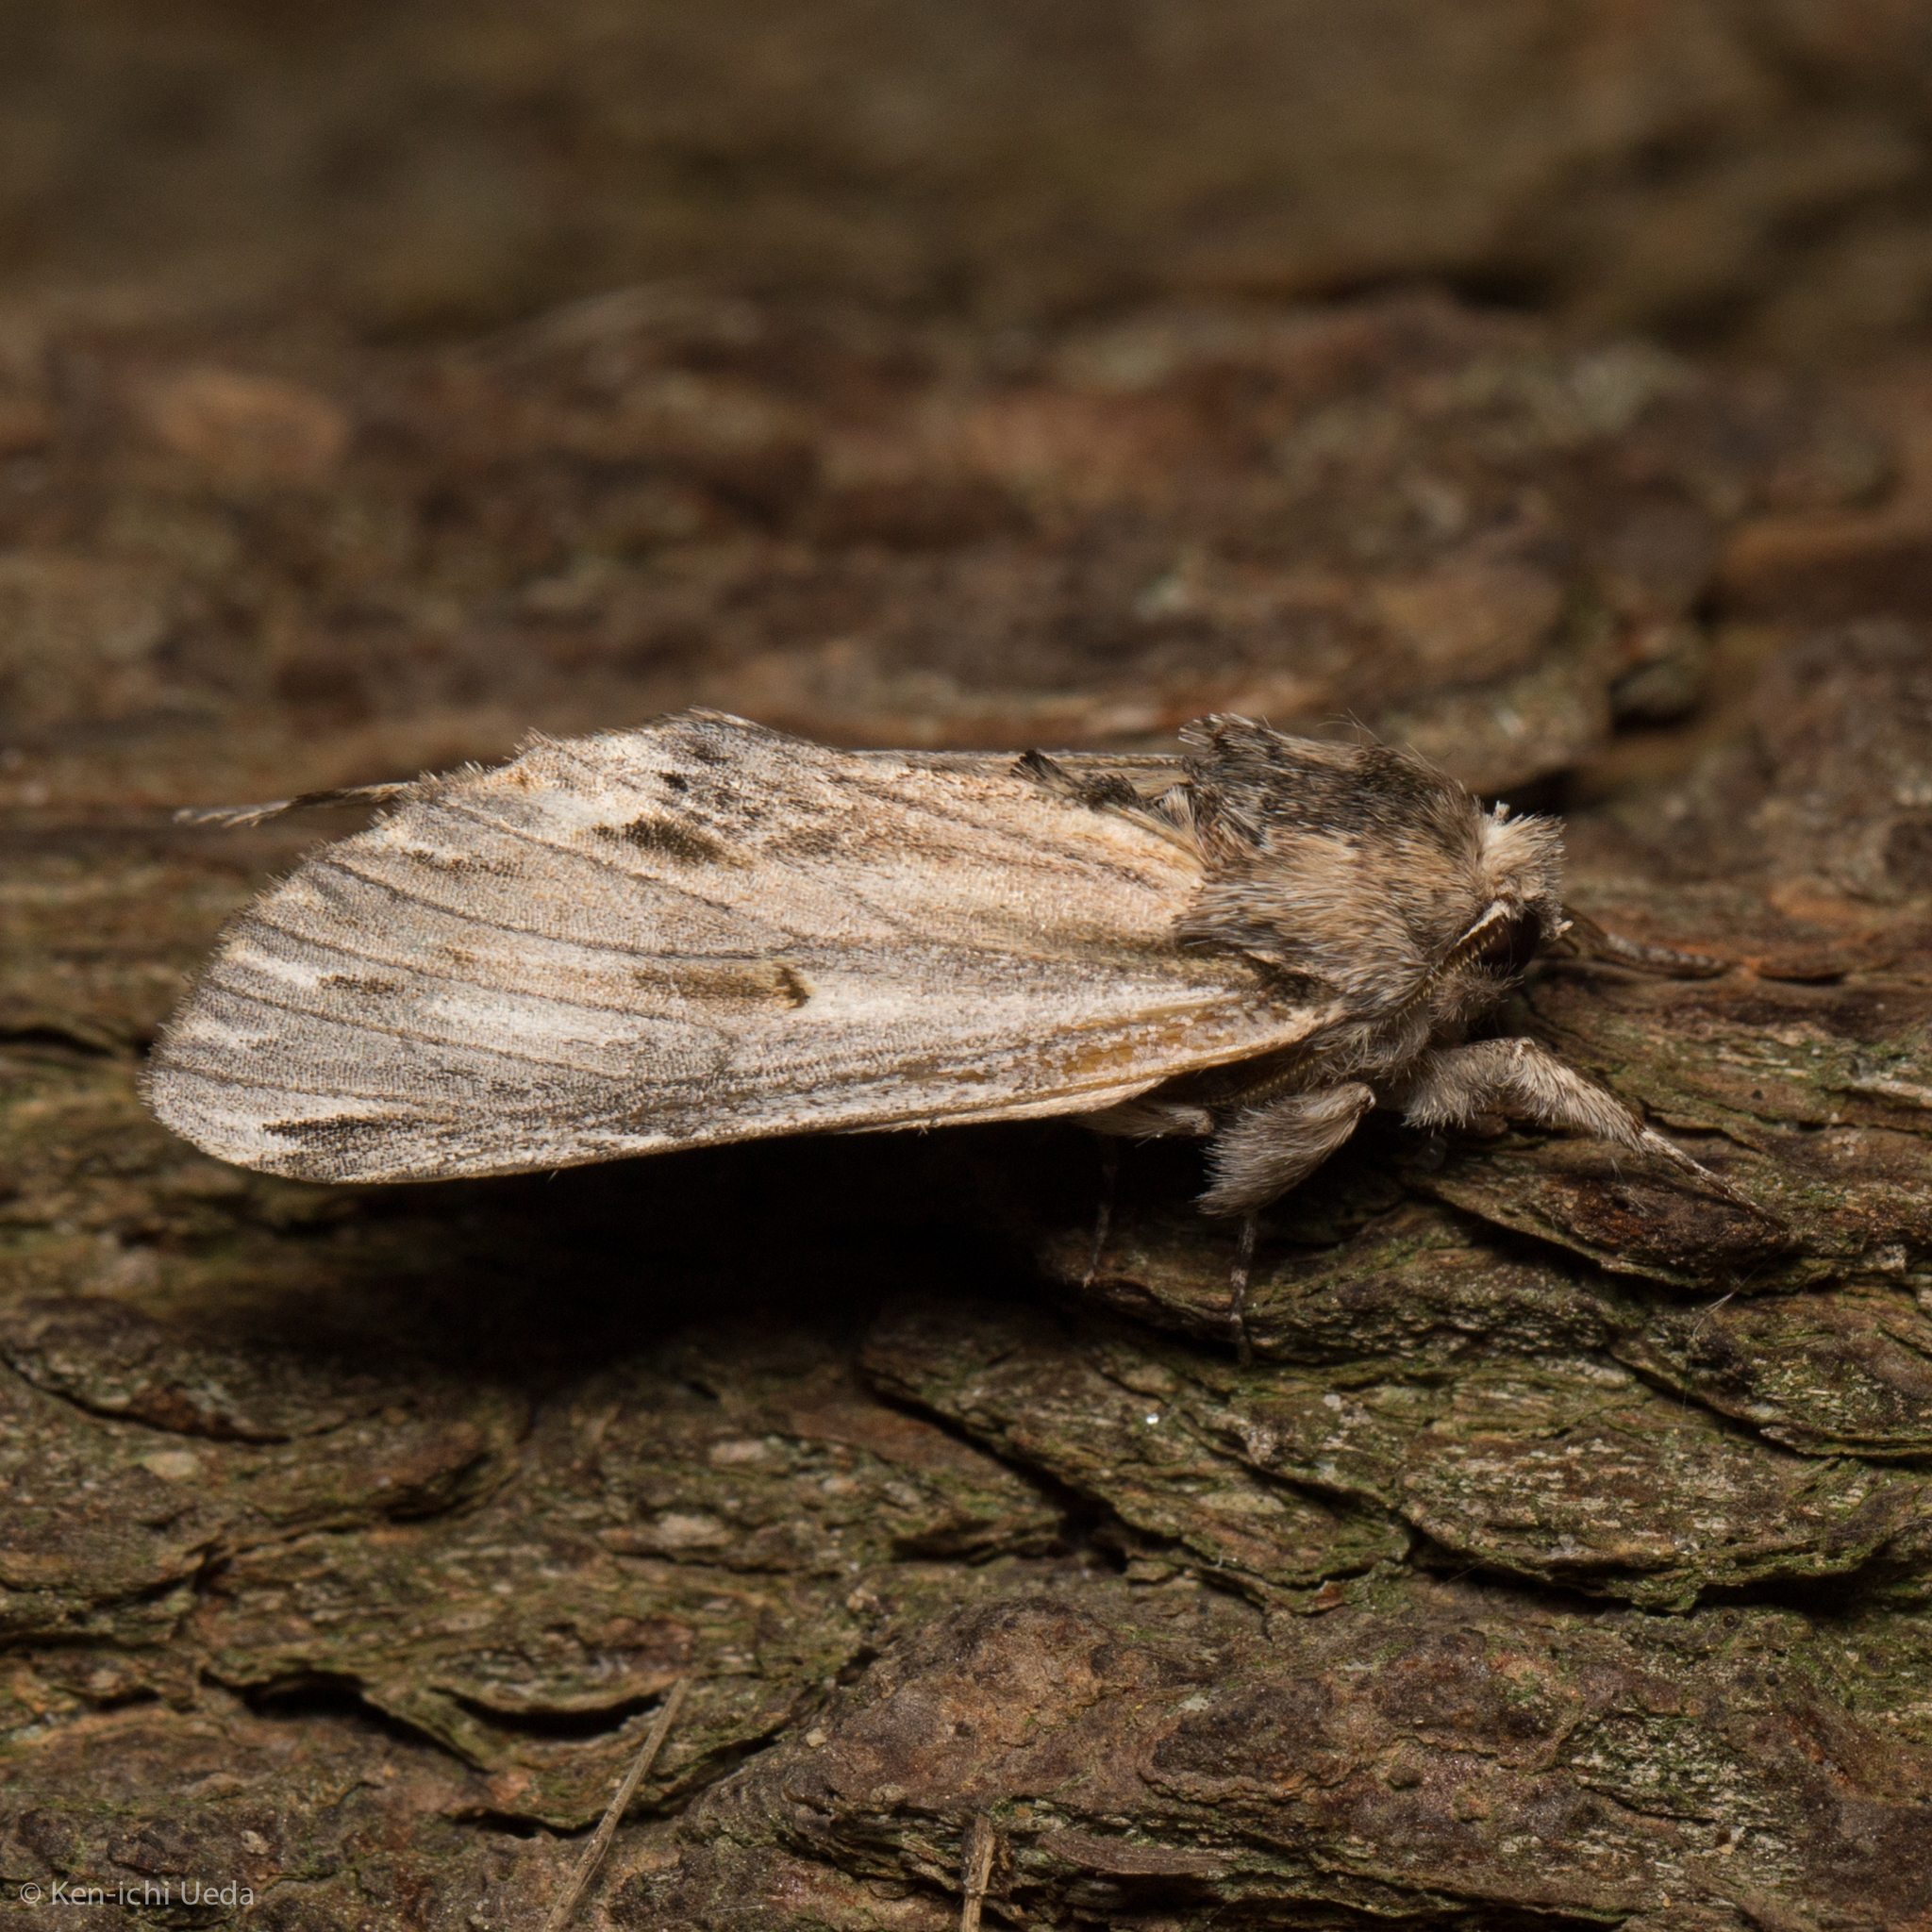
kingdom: Animalia
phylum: Arthropoda
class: Insecta
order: Lepidoptera
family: Notodontidae
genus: Oligocentria
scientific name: Oligocentria Ianassa lignicolor
